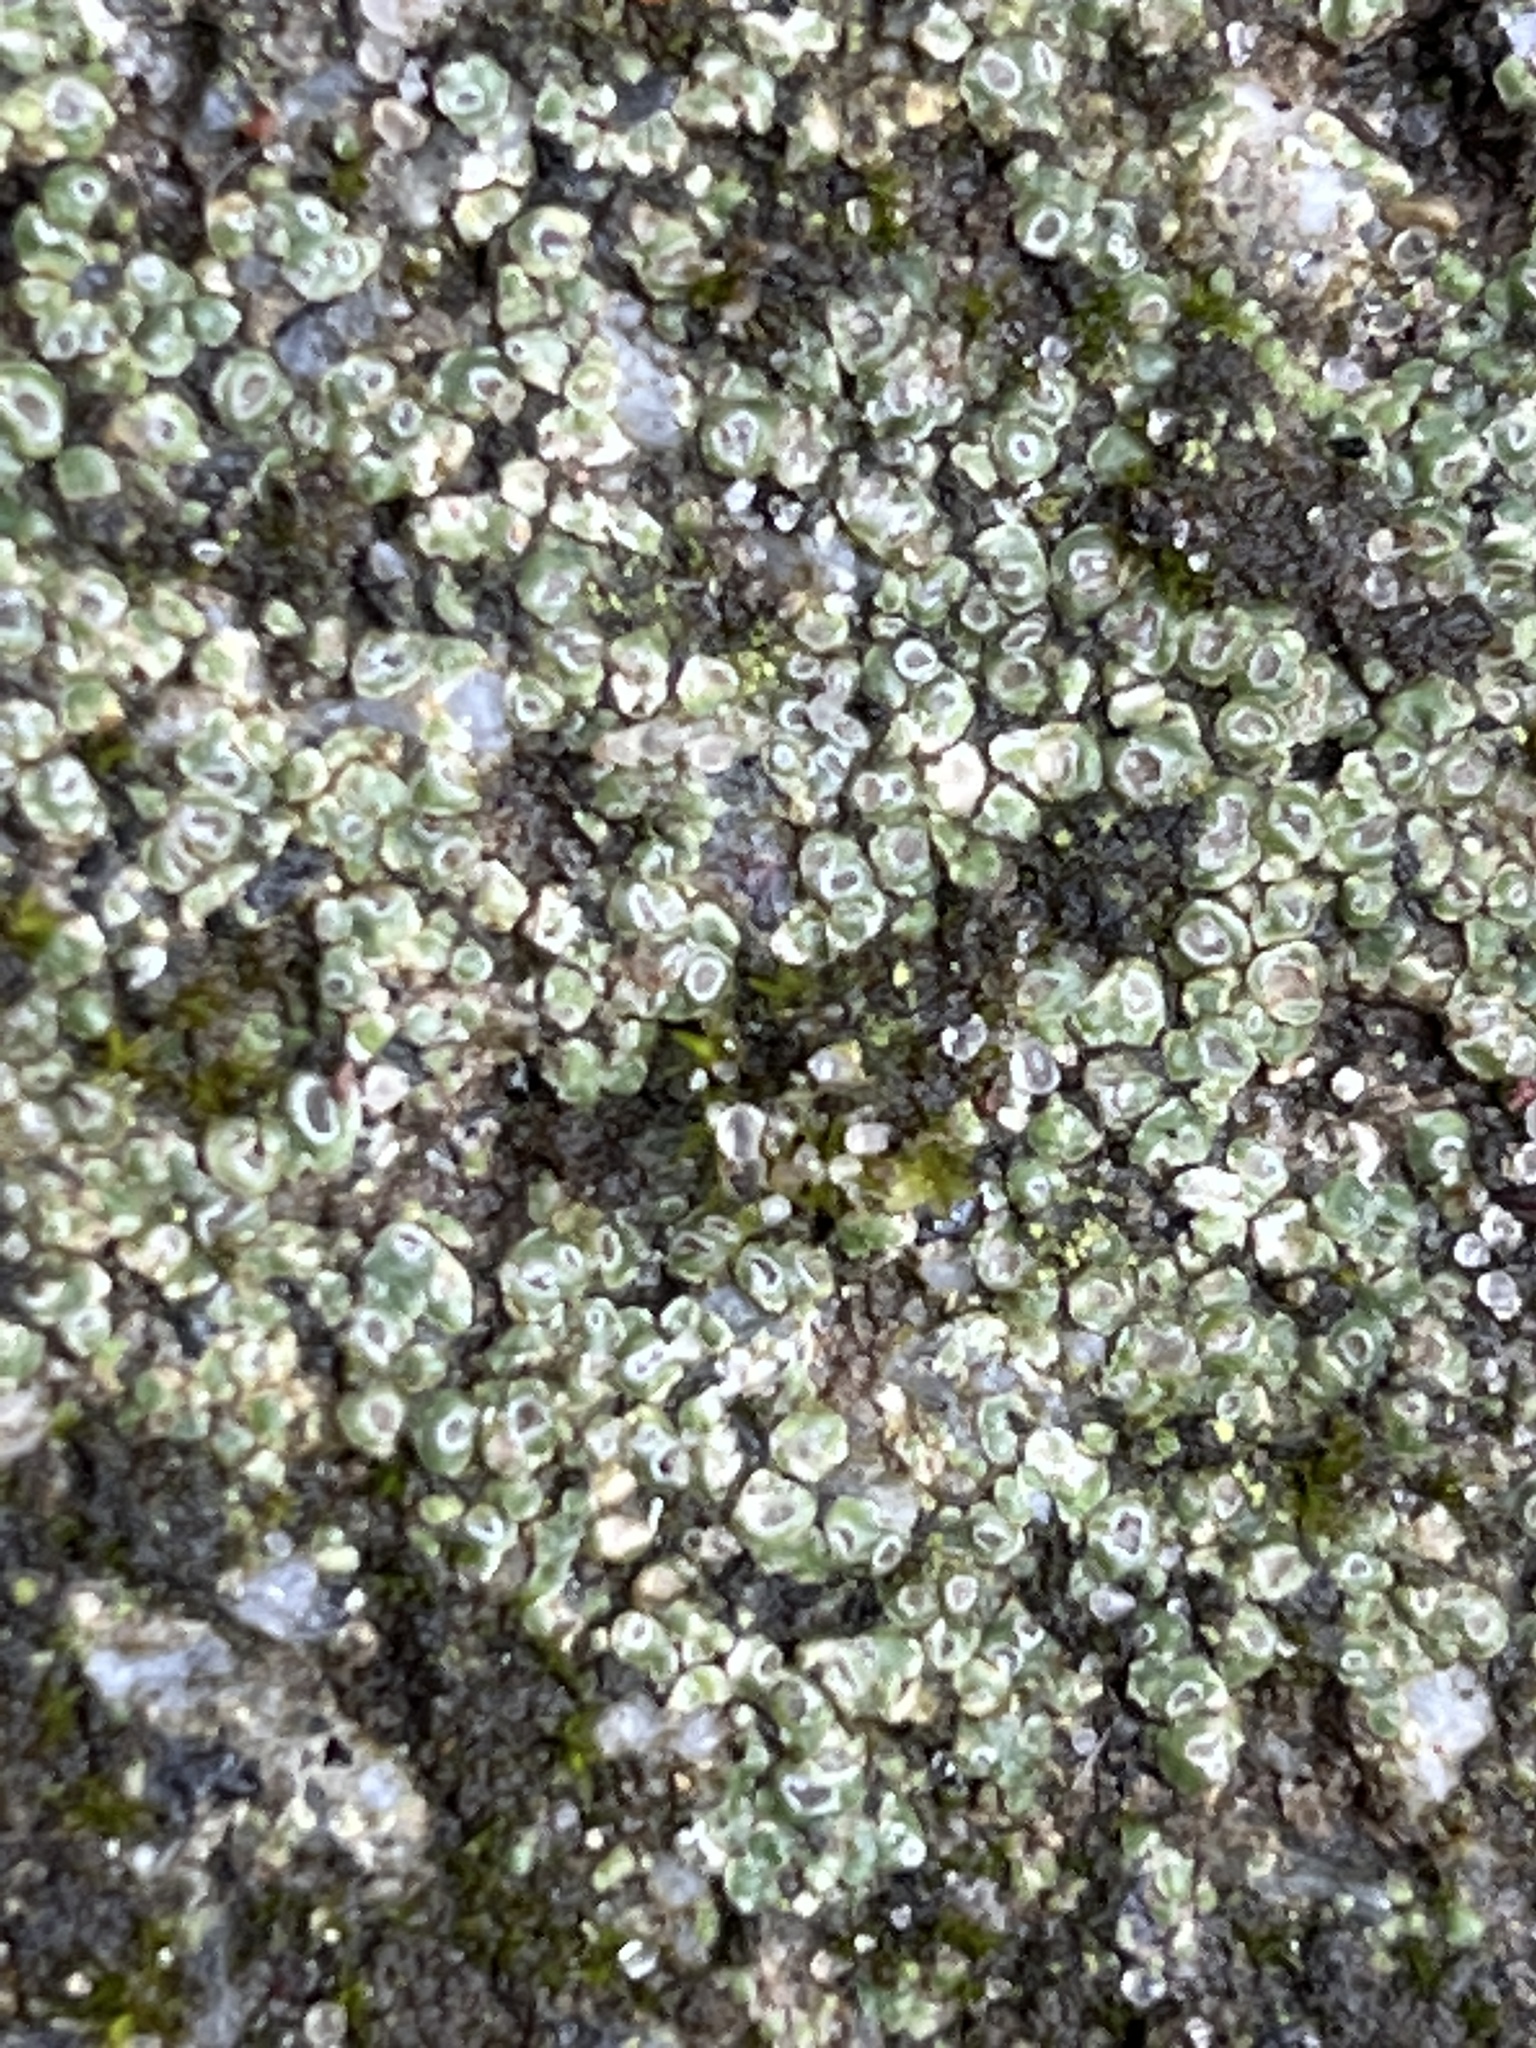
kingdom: Fungi
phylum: Ascomycota
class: Lecanoromycetes
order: Pertusariales
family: Megasporaceae
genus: Circinaria
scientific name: Circinaria contorta
